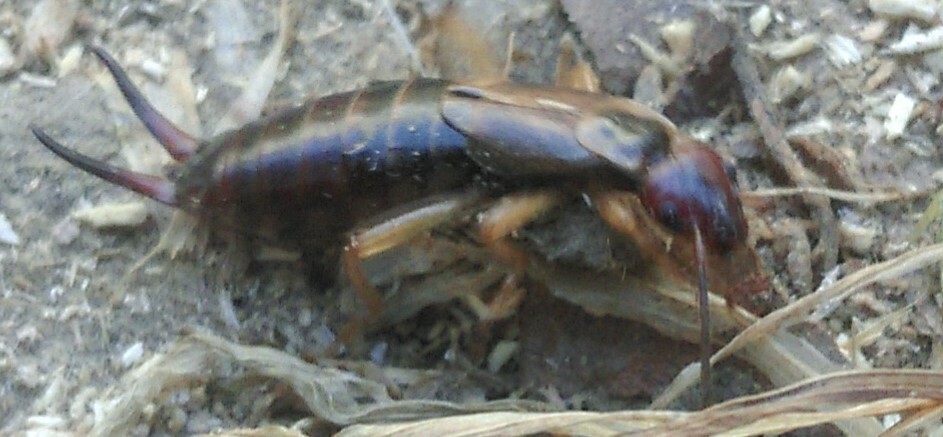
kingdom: Animalia
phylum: Arthropoda
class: Insecta
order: Dermaptera
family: Forficulidae
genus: Forficula
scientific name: Forficula
